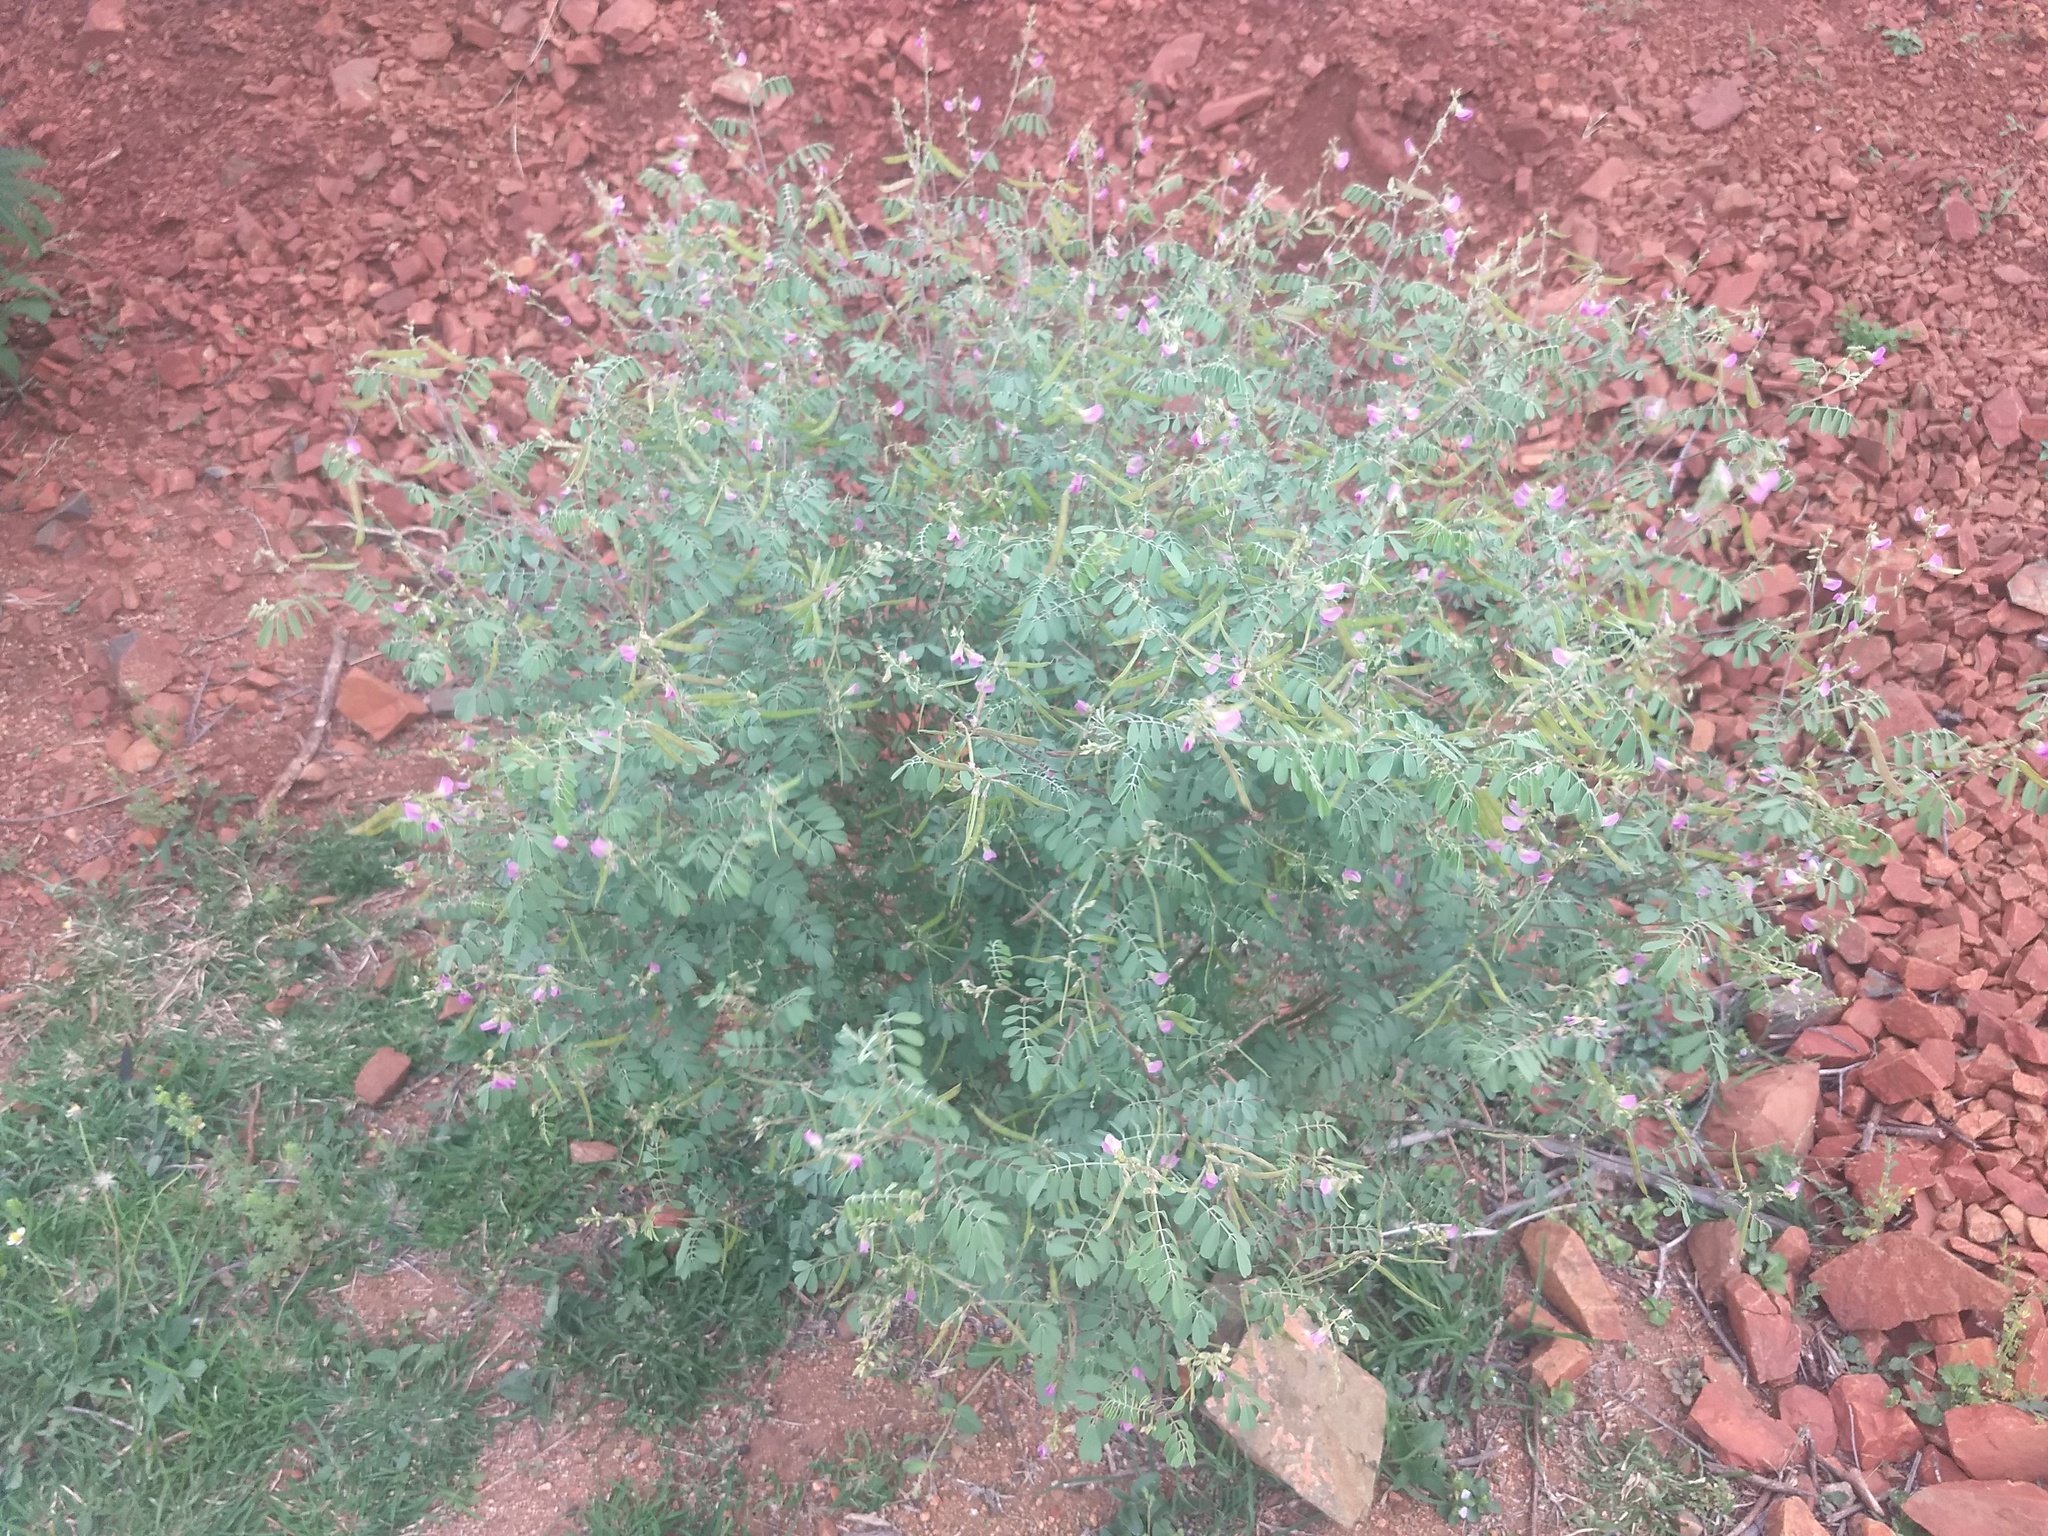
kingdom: Plantae
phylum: Tracheophyta
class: Magnoliopsida
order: Fabales
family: Fabaceae
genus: Tephrosia
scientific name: Tephrosia purpurea
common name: Fishpoison
